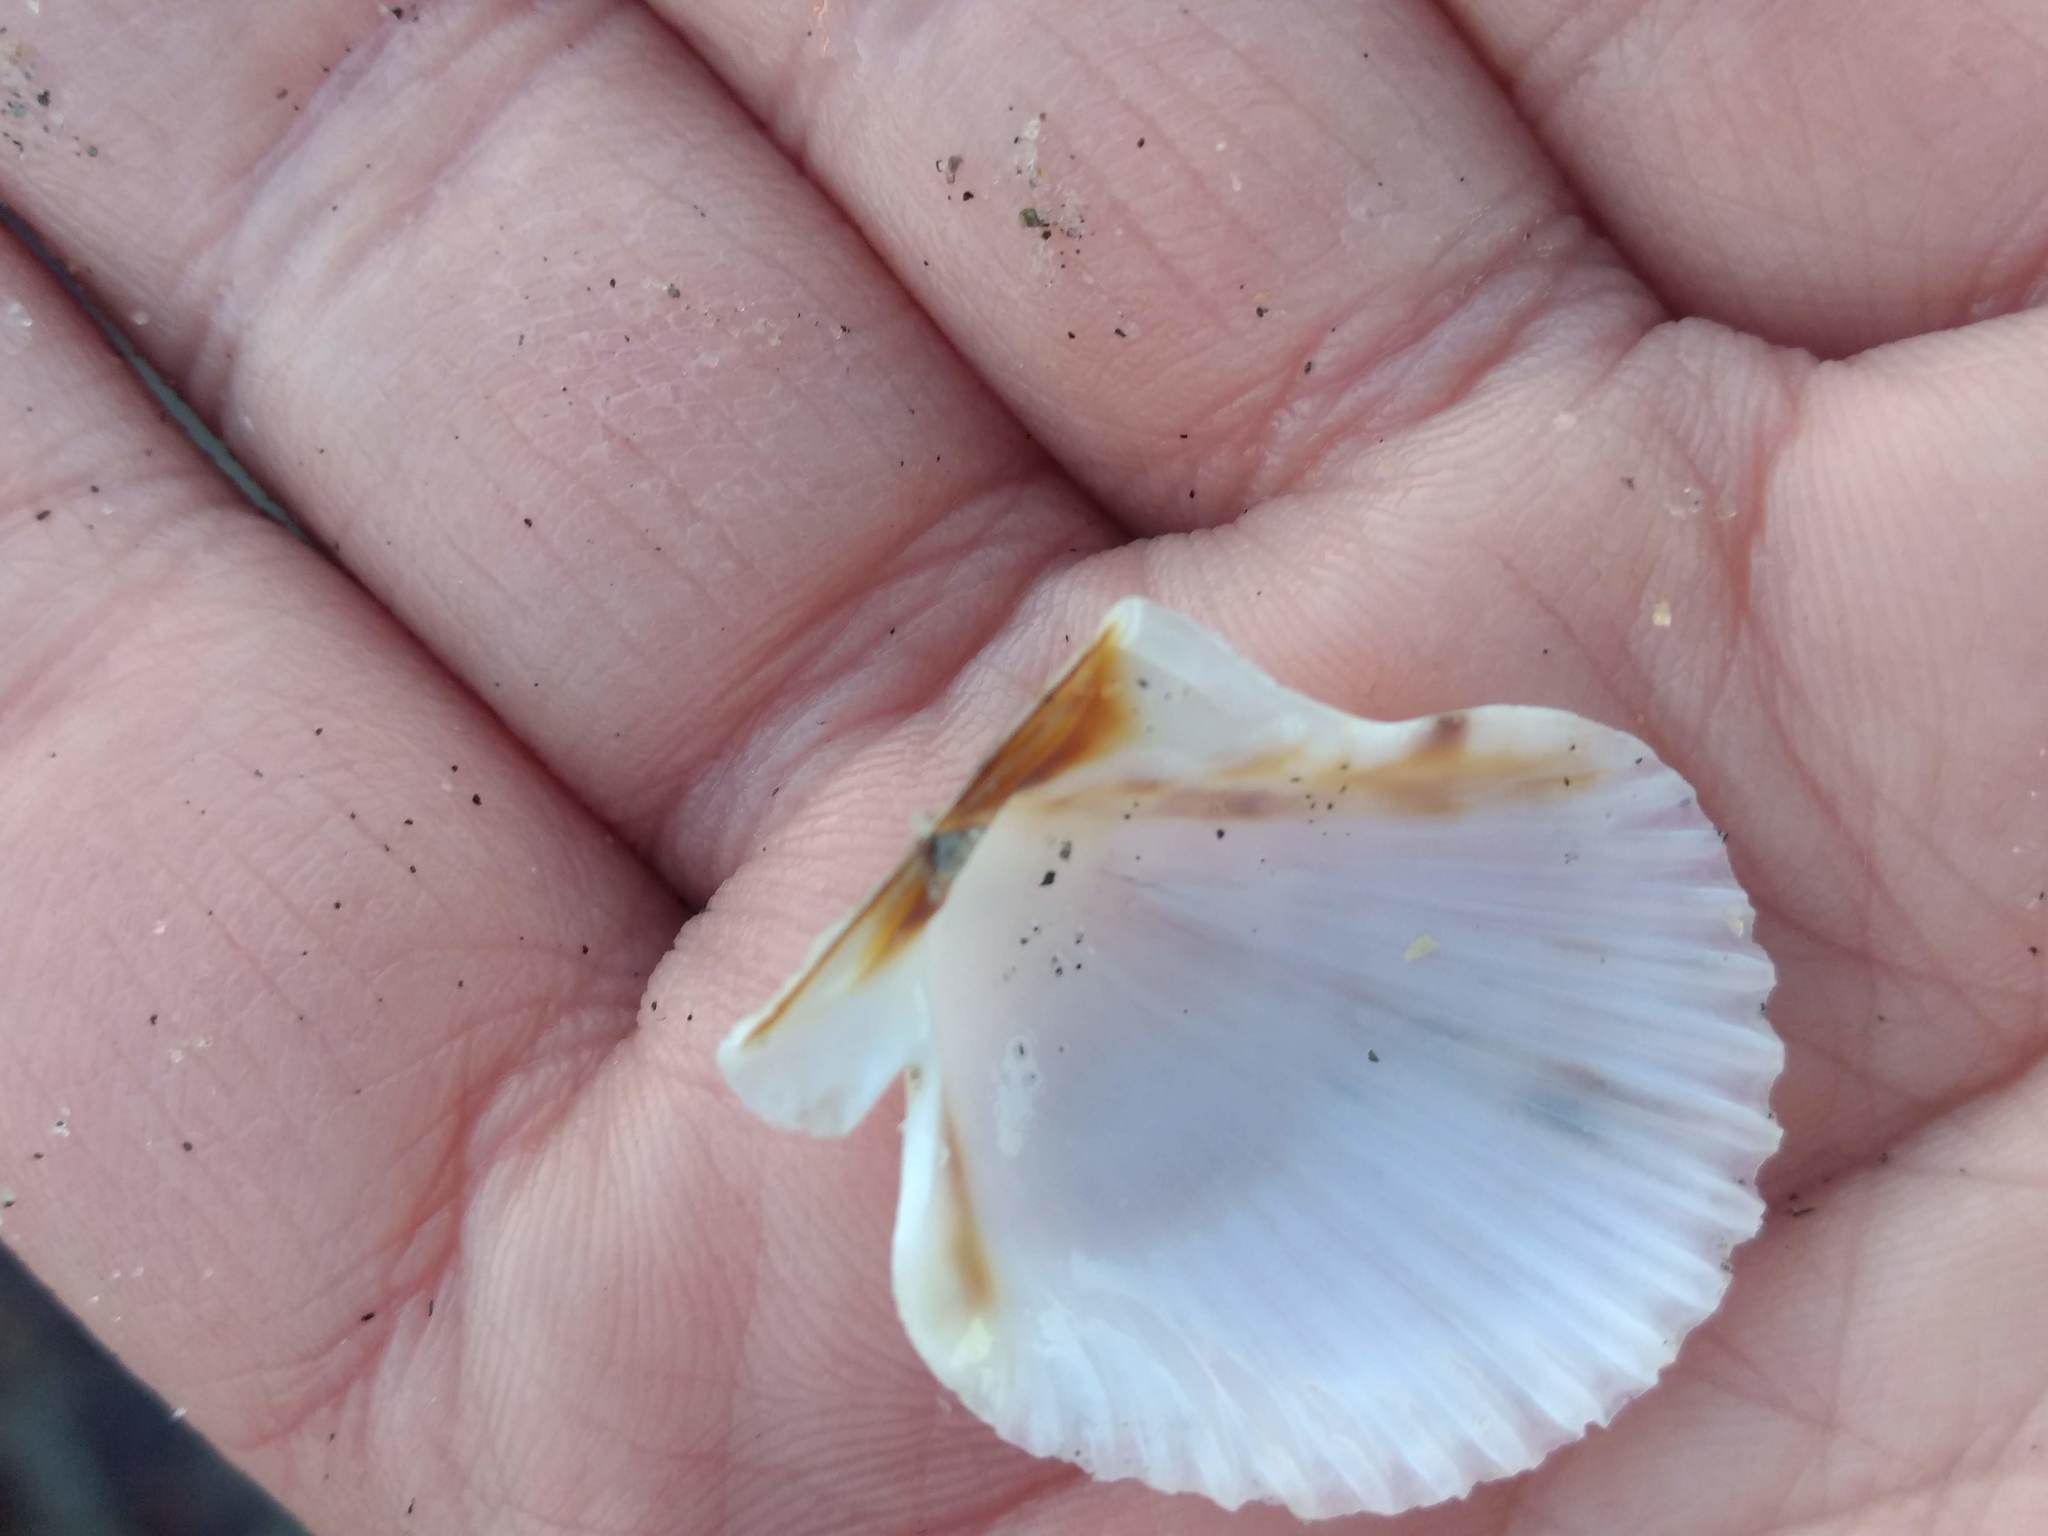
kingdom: Animalia
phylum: Mollusca
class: Bivalvia
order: Pectinida
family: Pectinidae
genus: Argopecten
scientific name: Argopecten ventricosus
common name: Catarina scallop
